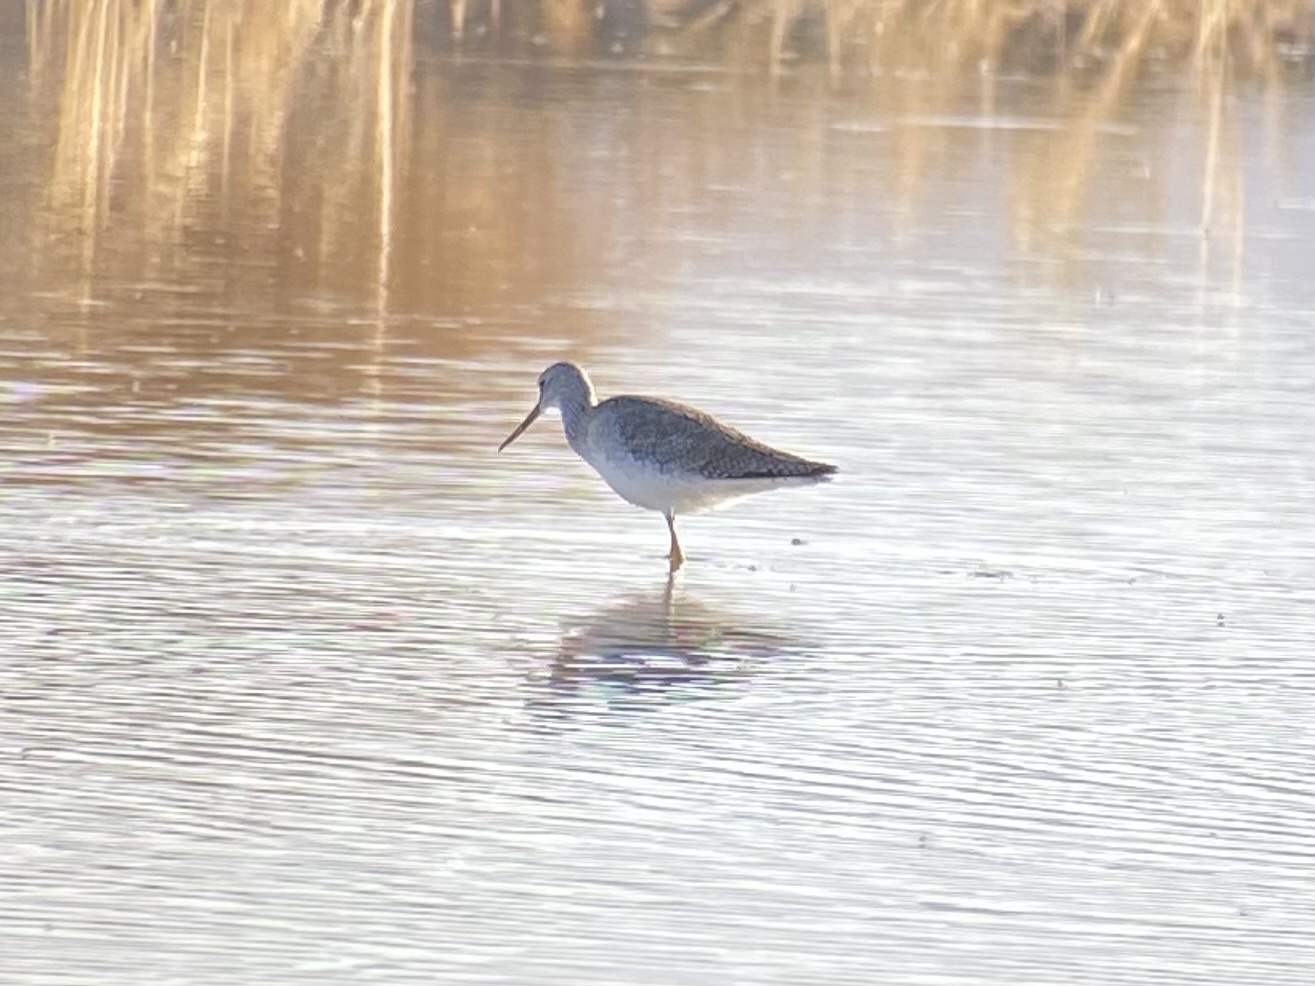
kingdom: Animalia
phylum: Chordata
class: Aves
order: Charadriiformes
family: Scolopacidae
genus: Tringa
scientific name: Tringa melanoleuca
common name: Greater yellowlegs
